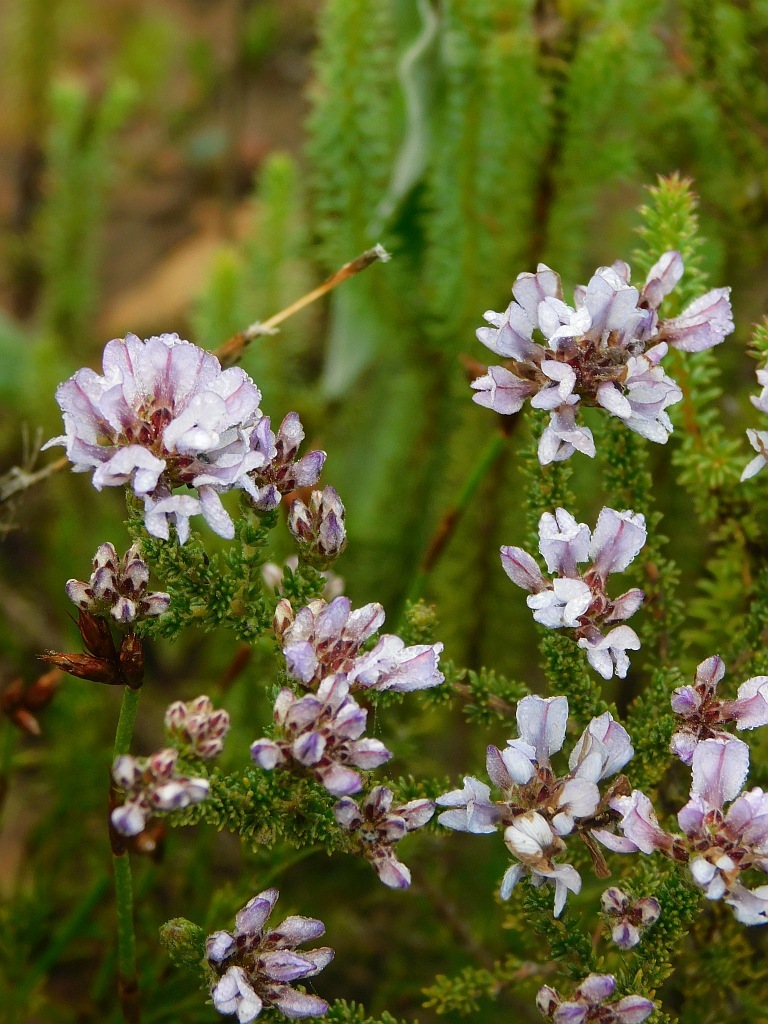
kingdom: Plantae
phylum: Tracheophyta
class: Magnoliopsida
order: Fabales
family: Fabaceae
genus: Aspalathus
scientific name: Aspalathus nigra
